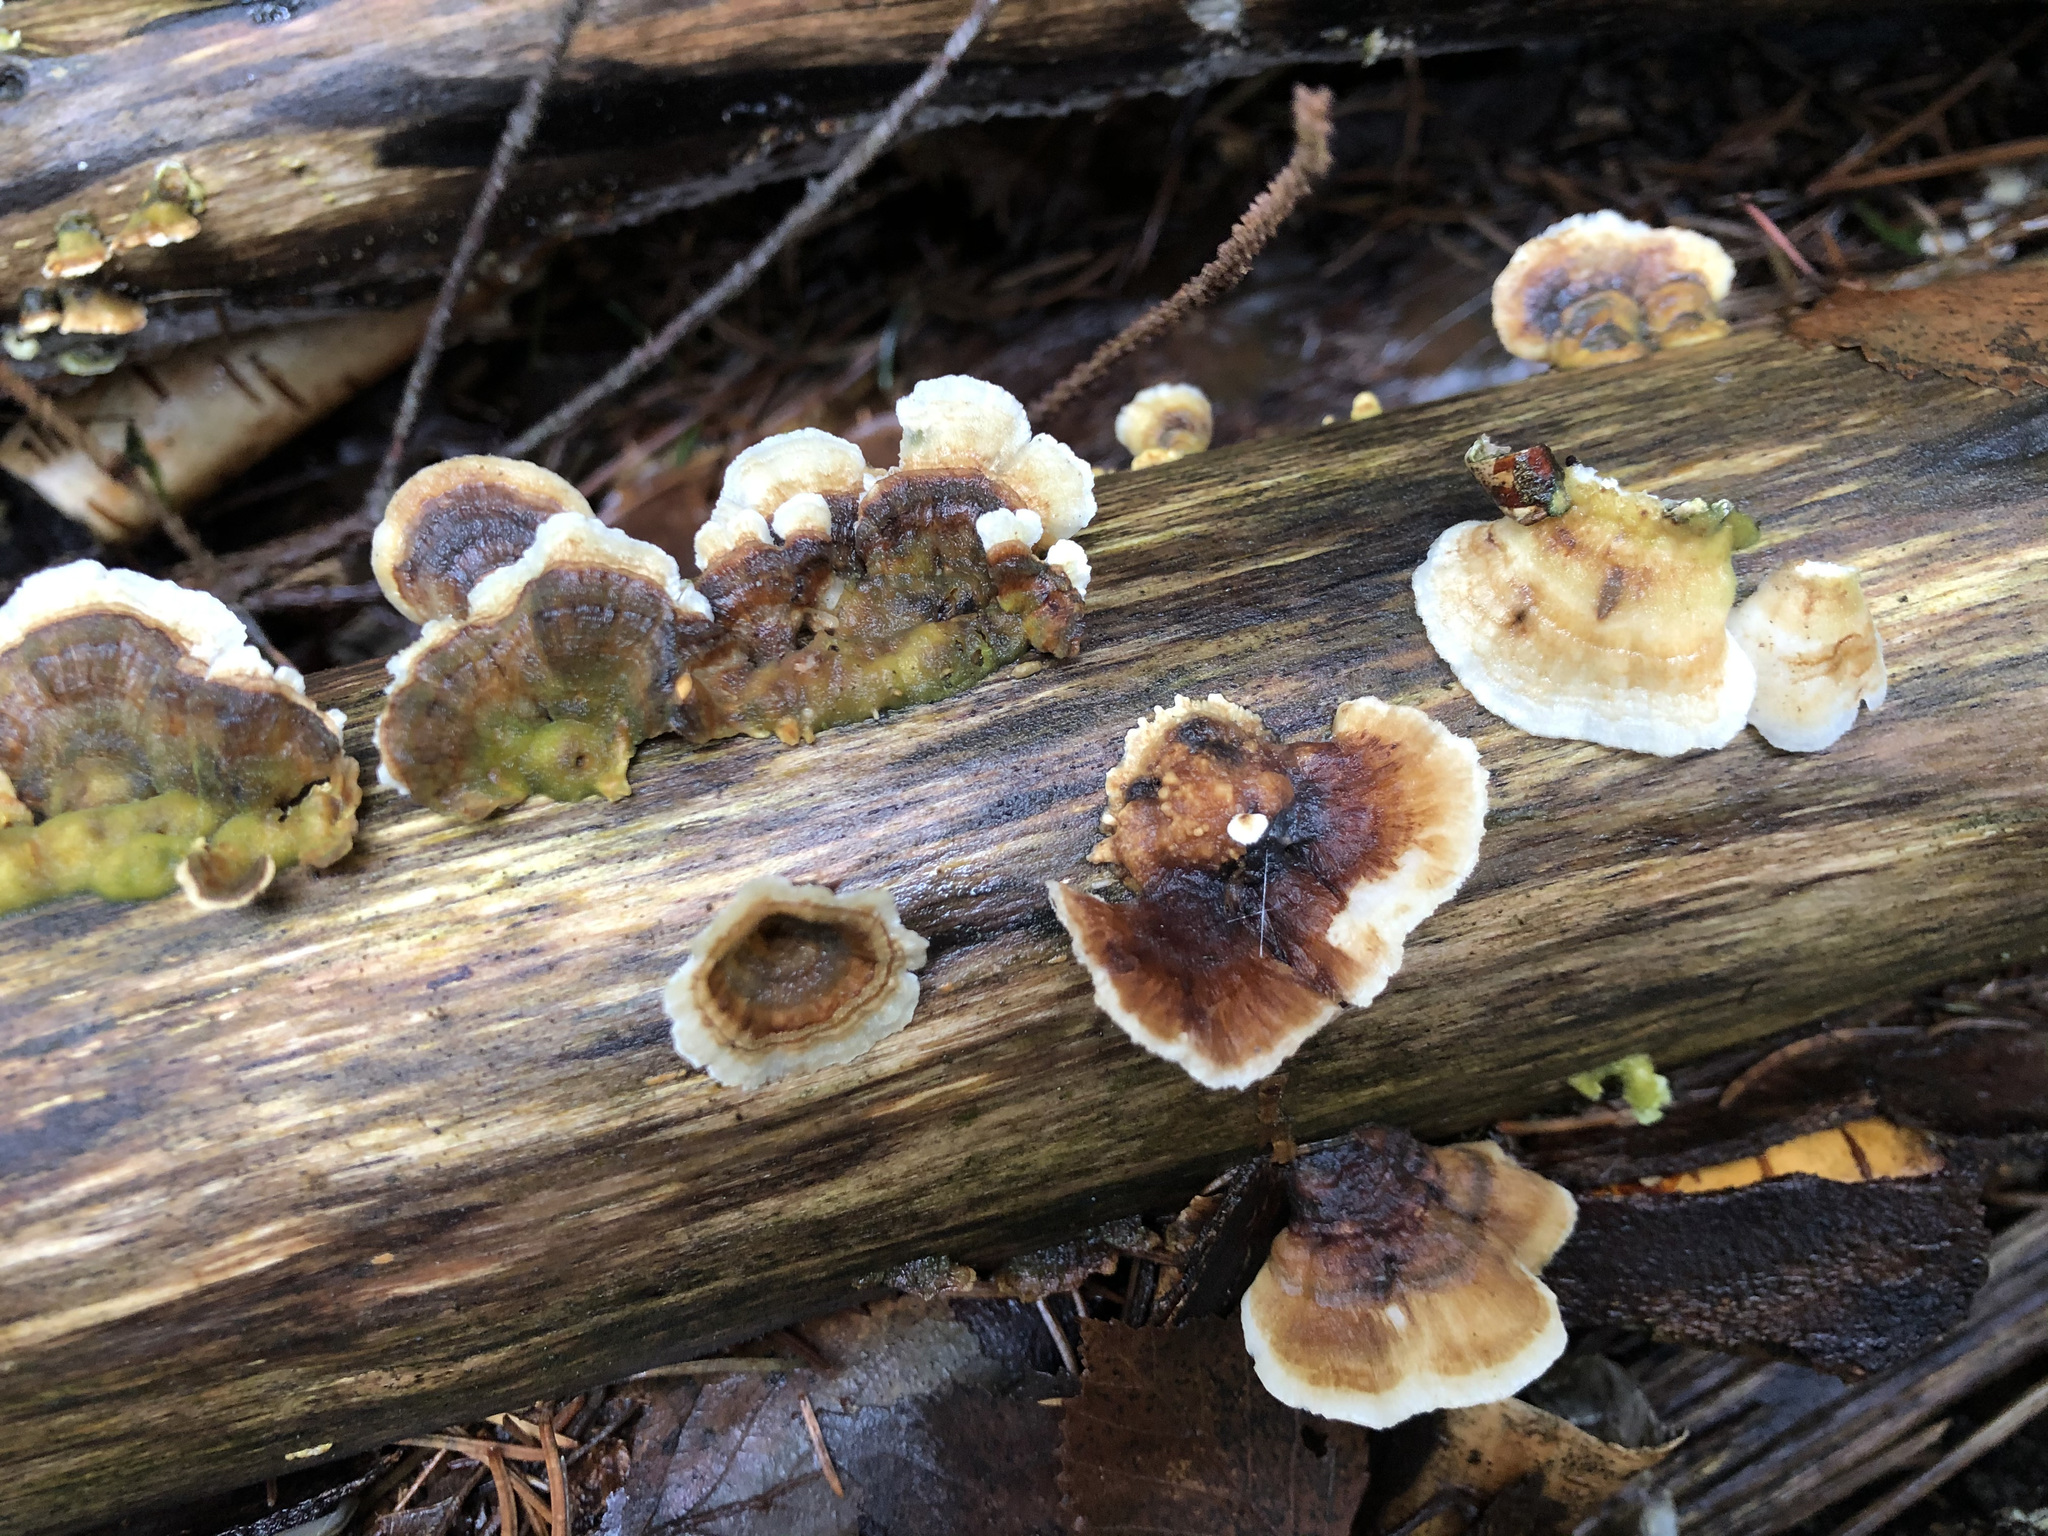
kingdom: Fungi
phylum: Basidiomycota
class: Agaricomycetes
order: Polyporales
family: Polyporaceae
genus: Trametes
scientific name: Trametes versicolor
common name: Turkeytail
